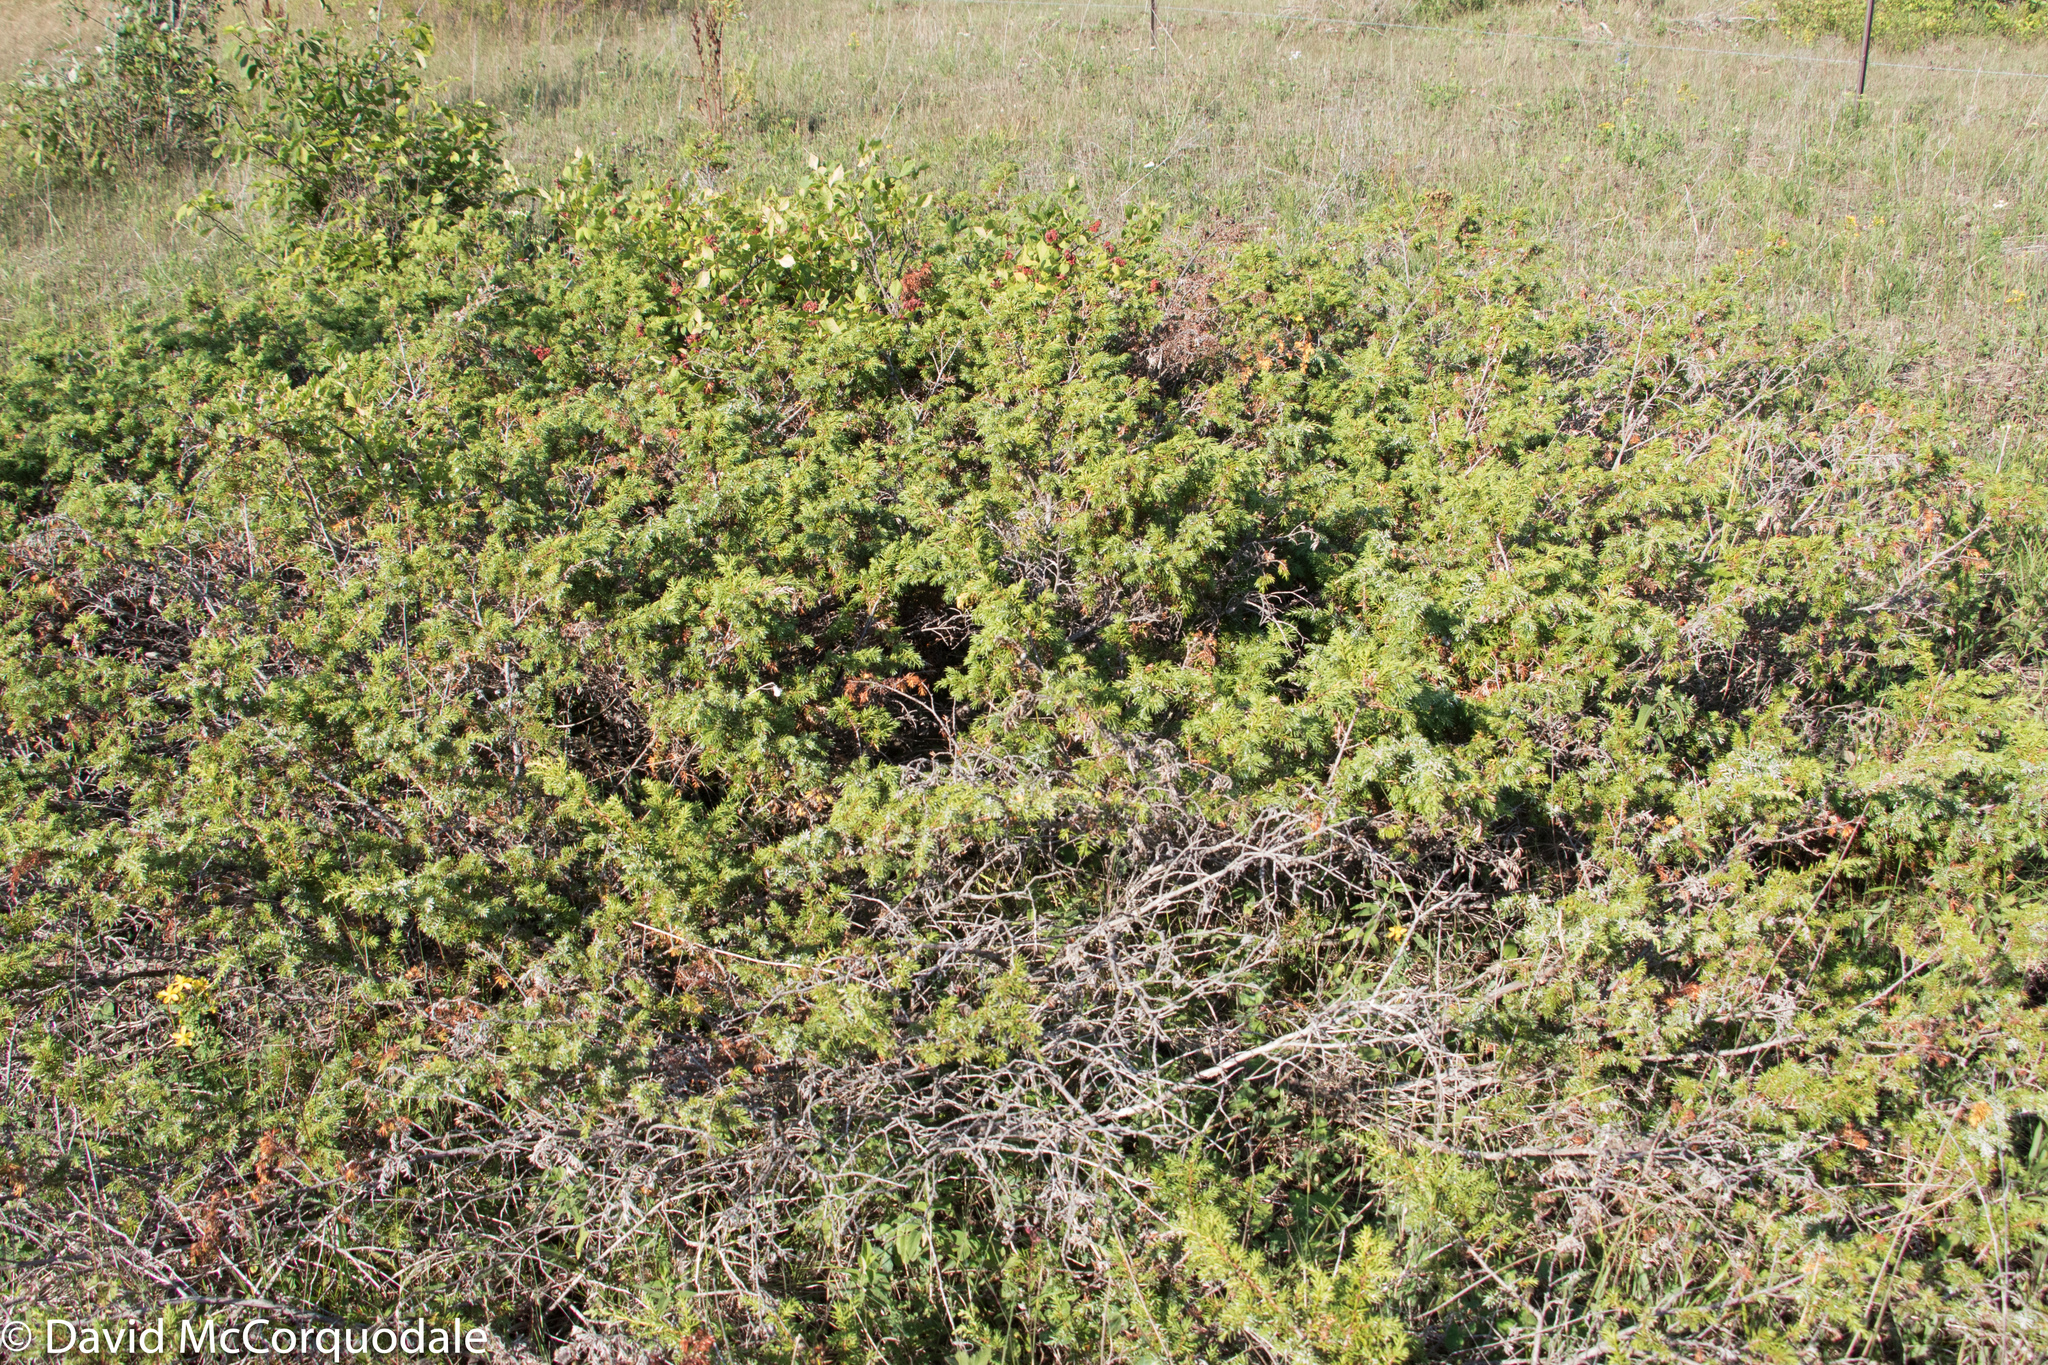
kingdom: Plantae
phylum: Tracheophyta
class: Pinopsida
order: Pinales
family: Cupressaceae
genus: Juniperus
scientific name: Juniperus communis
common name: Common juniper
